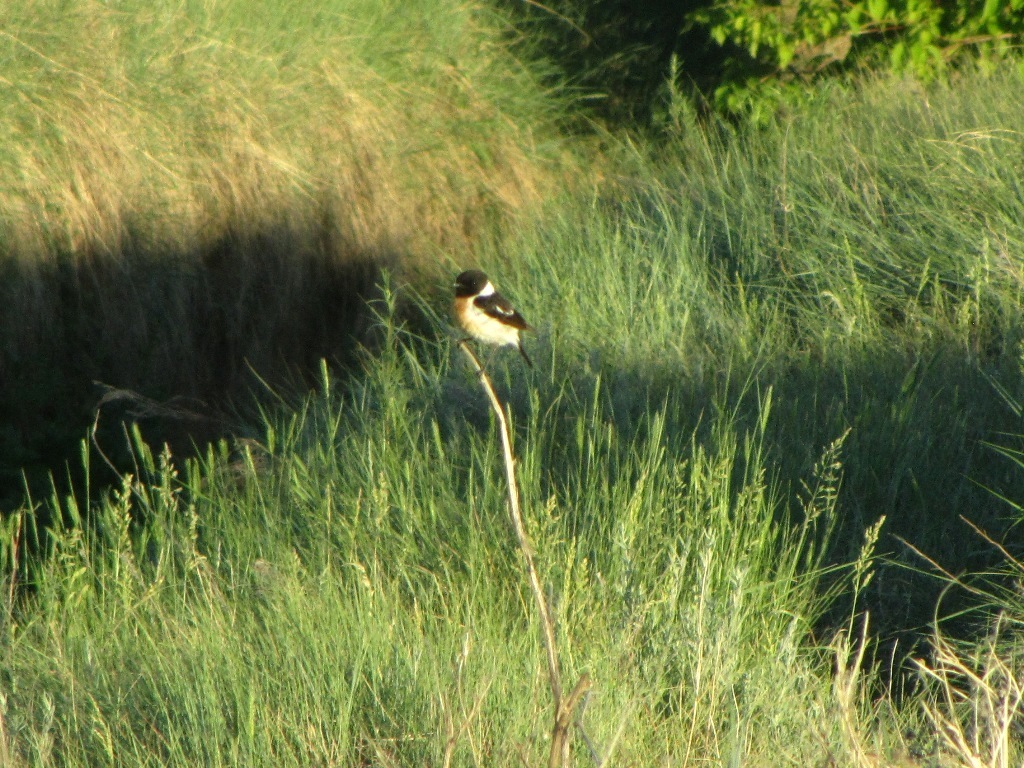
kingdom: Animalia
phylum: Chordata
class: Aves
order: Passeriformes
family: Muscicapidae
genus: Saxicola
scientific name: Saxicola maurus
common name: Siberian stonechat
